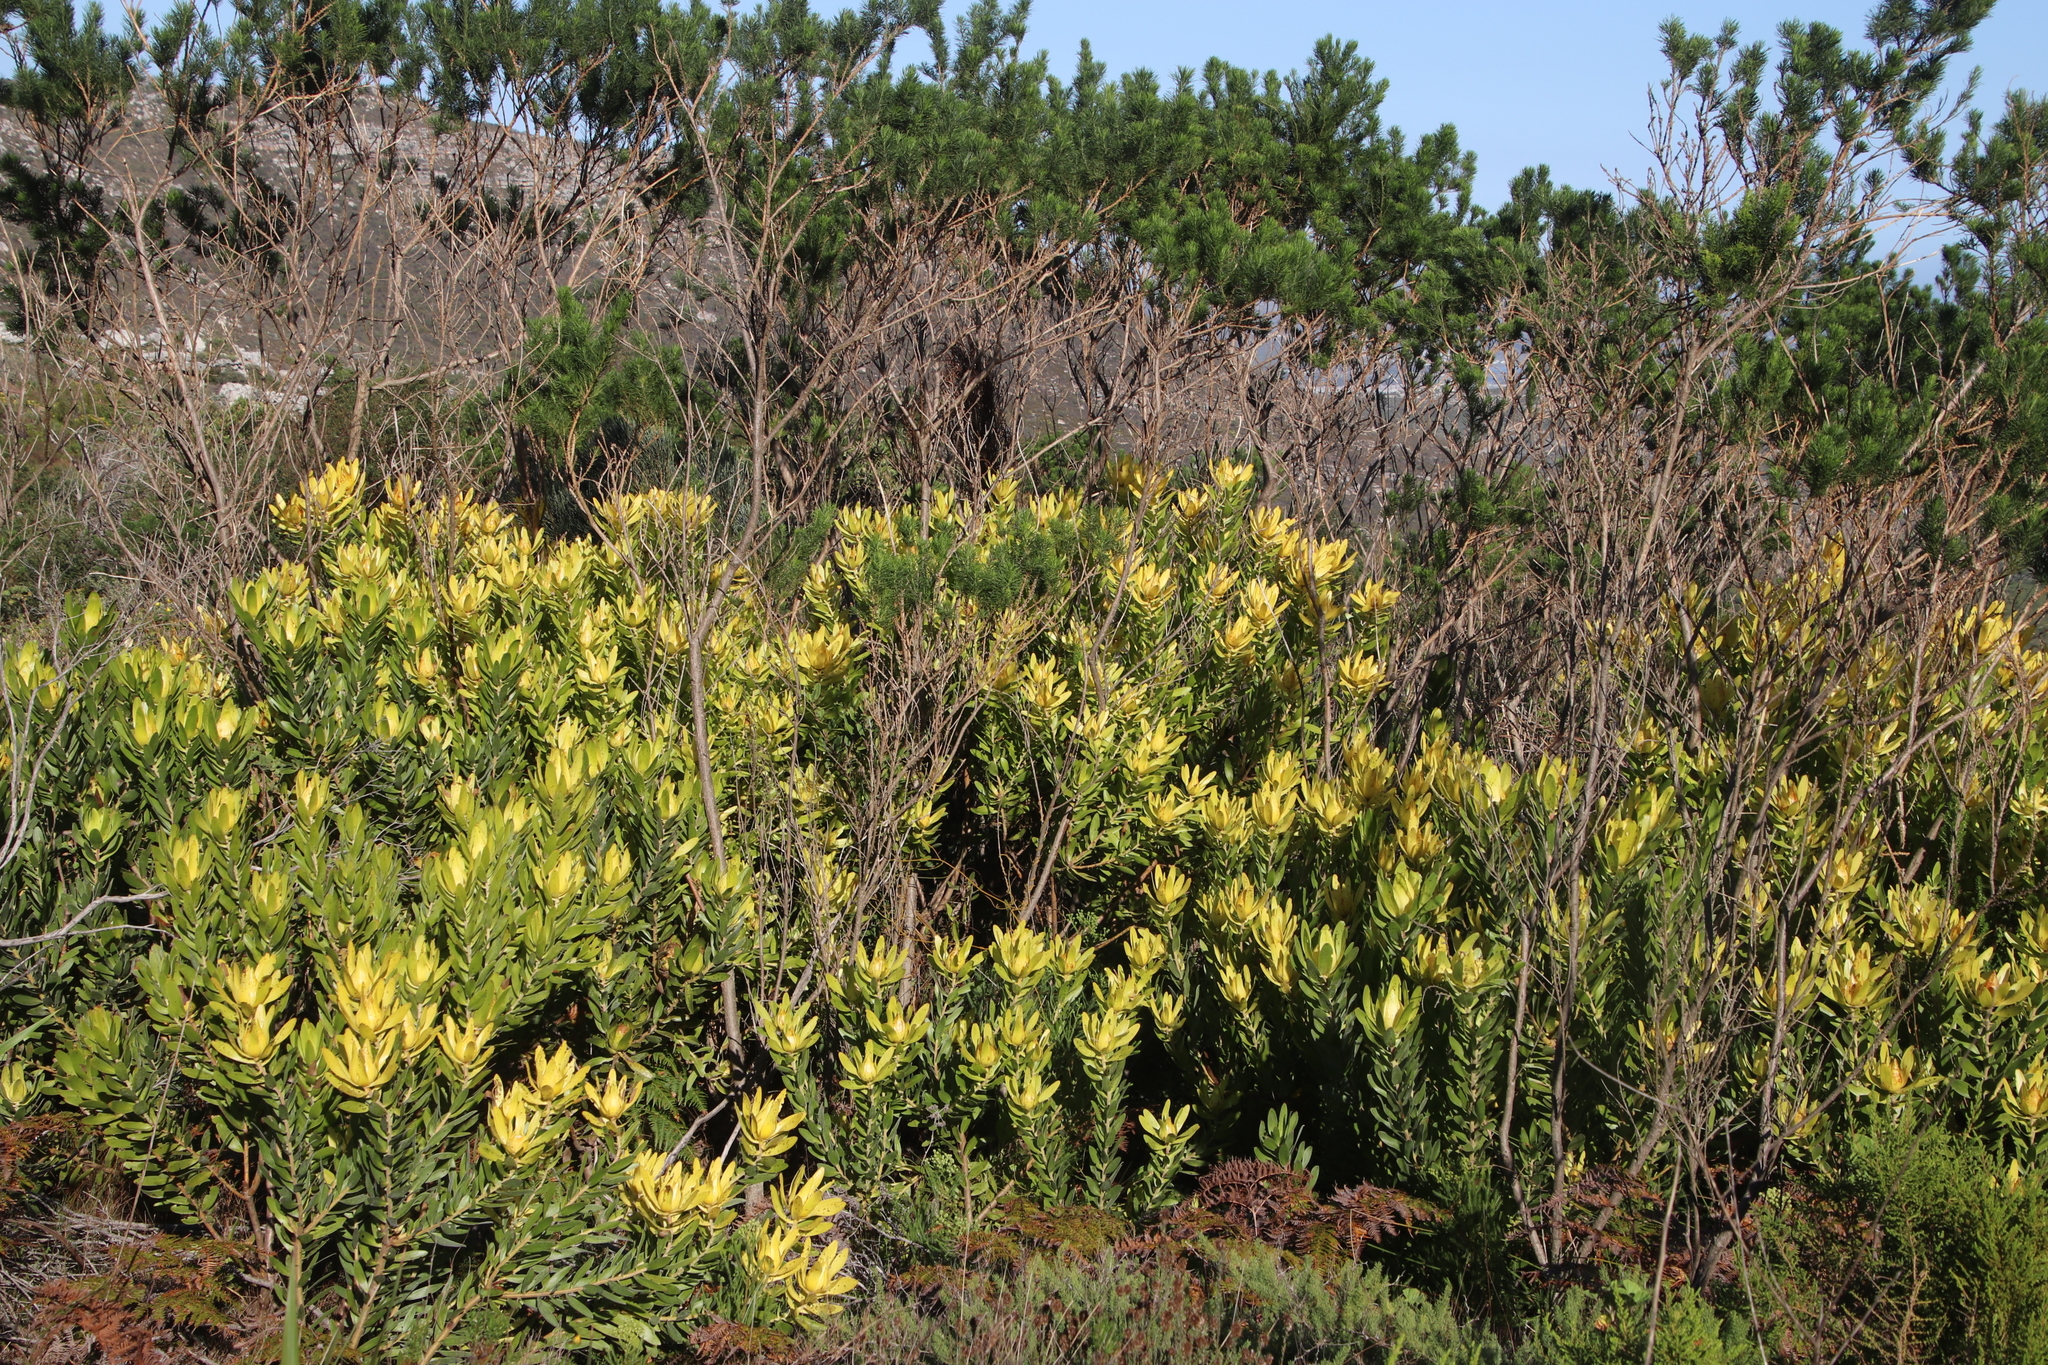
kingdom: Plantae
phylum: Tracheophyta
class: Magnoliopsida
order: Proteales
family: Proteaceae
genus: Leucadendron
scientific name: Leucadendron laureolum
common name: Golden sunshinebush
